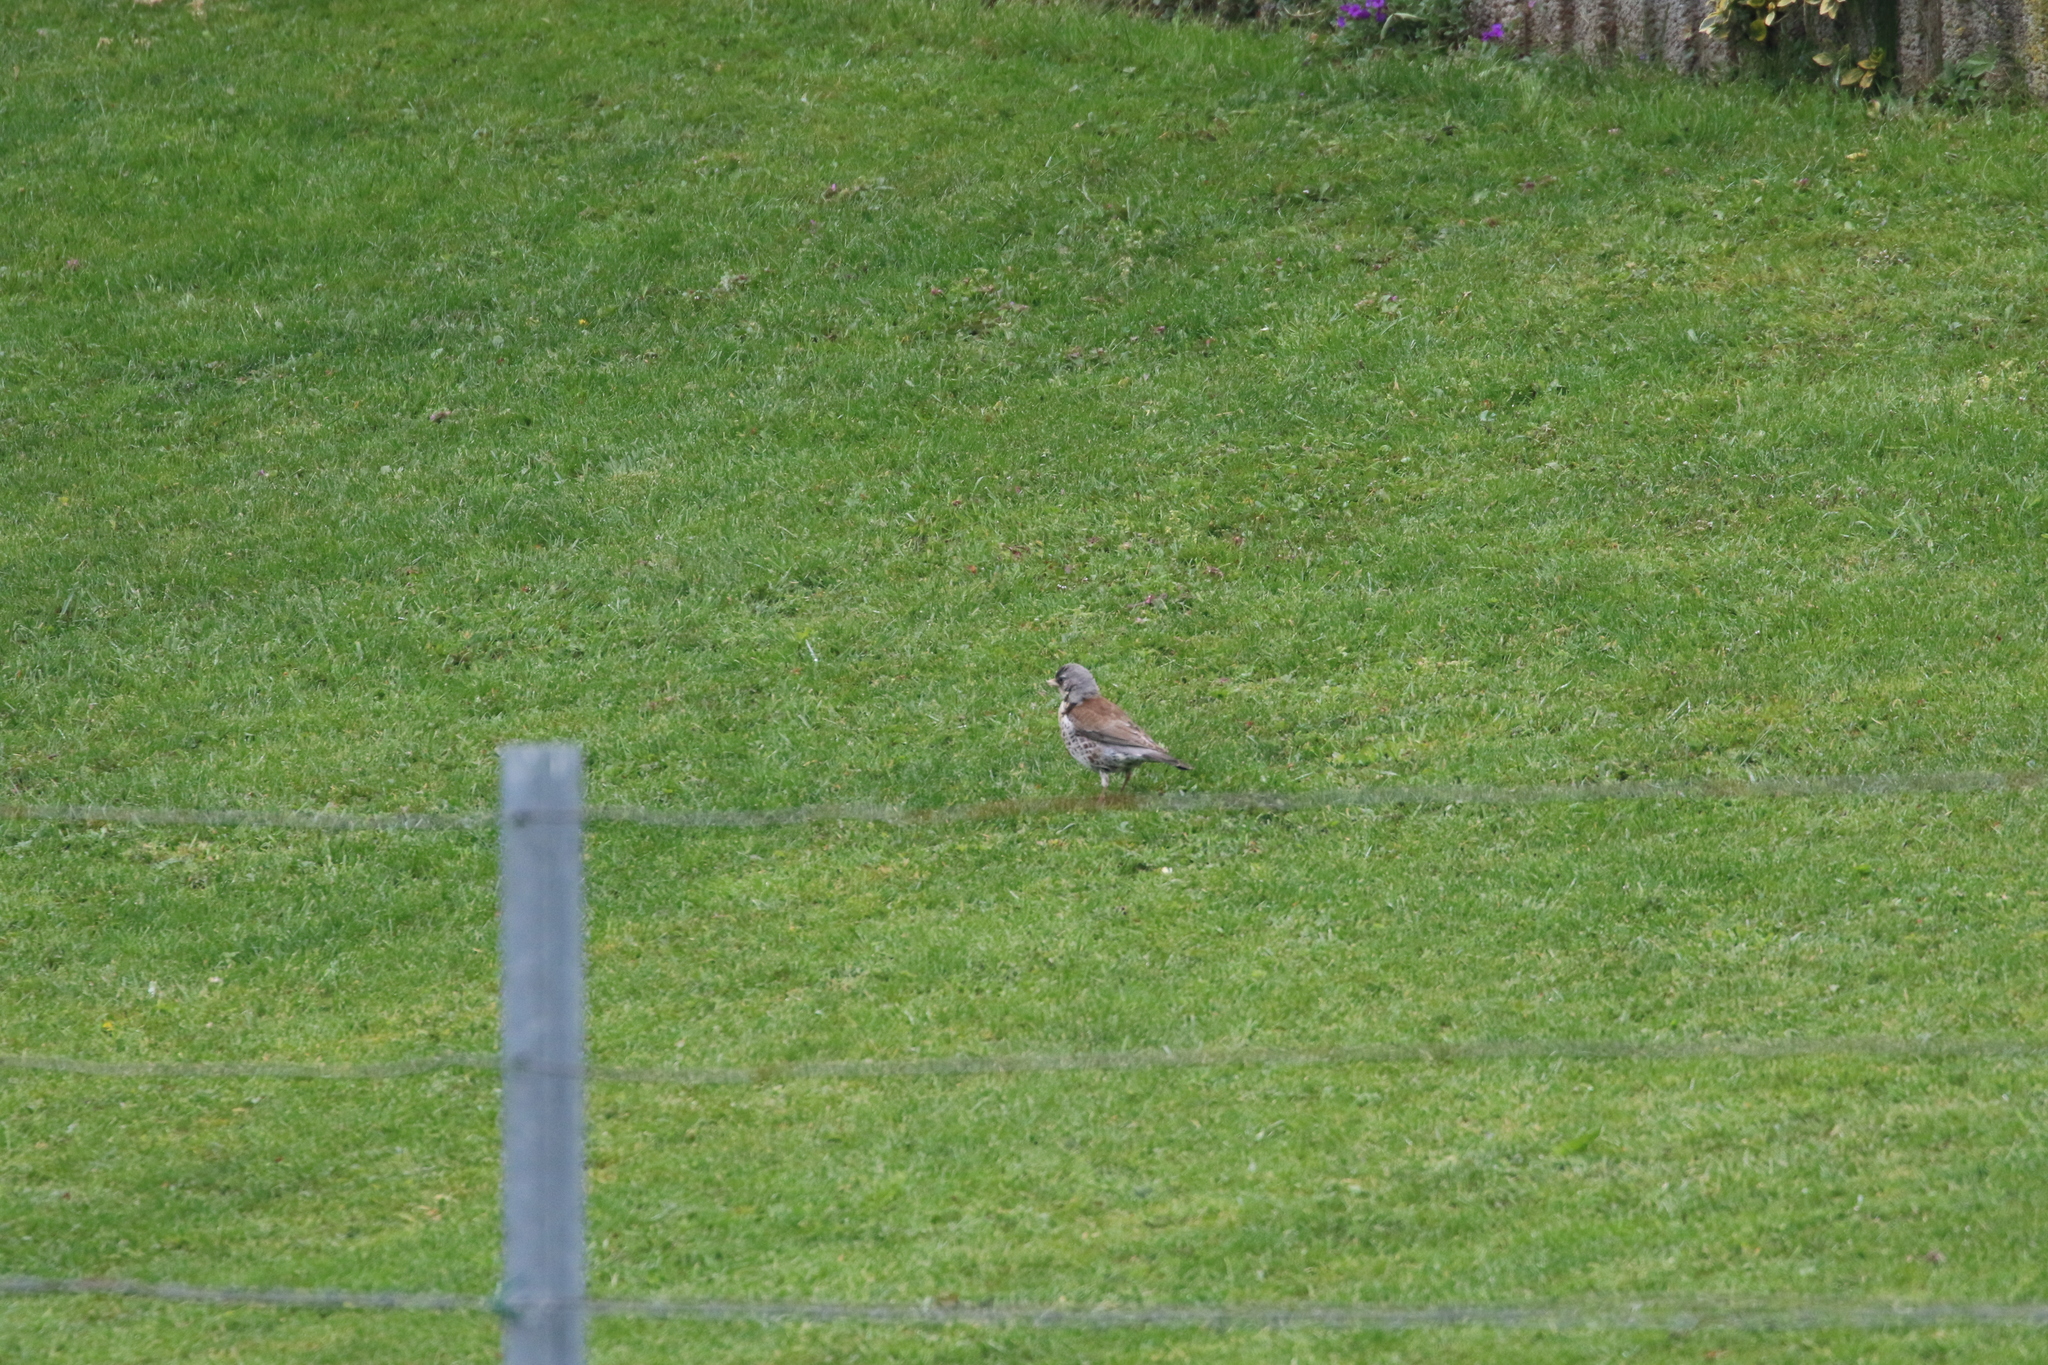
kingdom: Animalia
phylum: Chordata
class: Aves
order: Passeriformes
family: Turdidae
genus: Turdus
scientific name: Turdus pilaris
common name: Fieldfare
